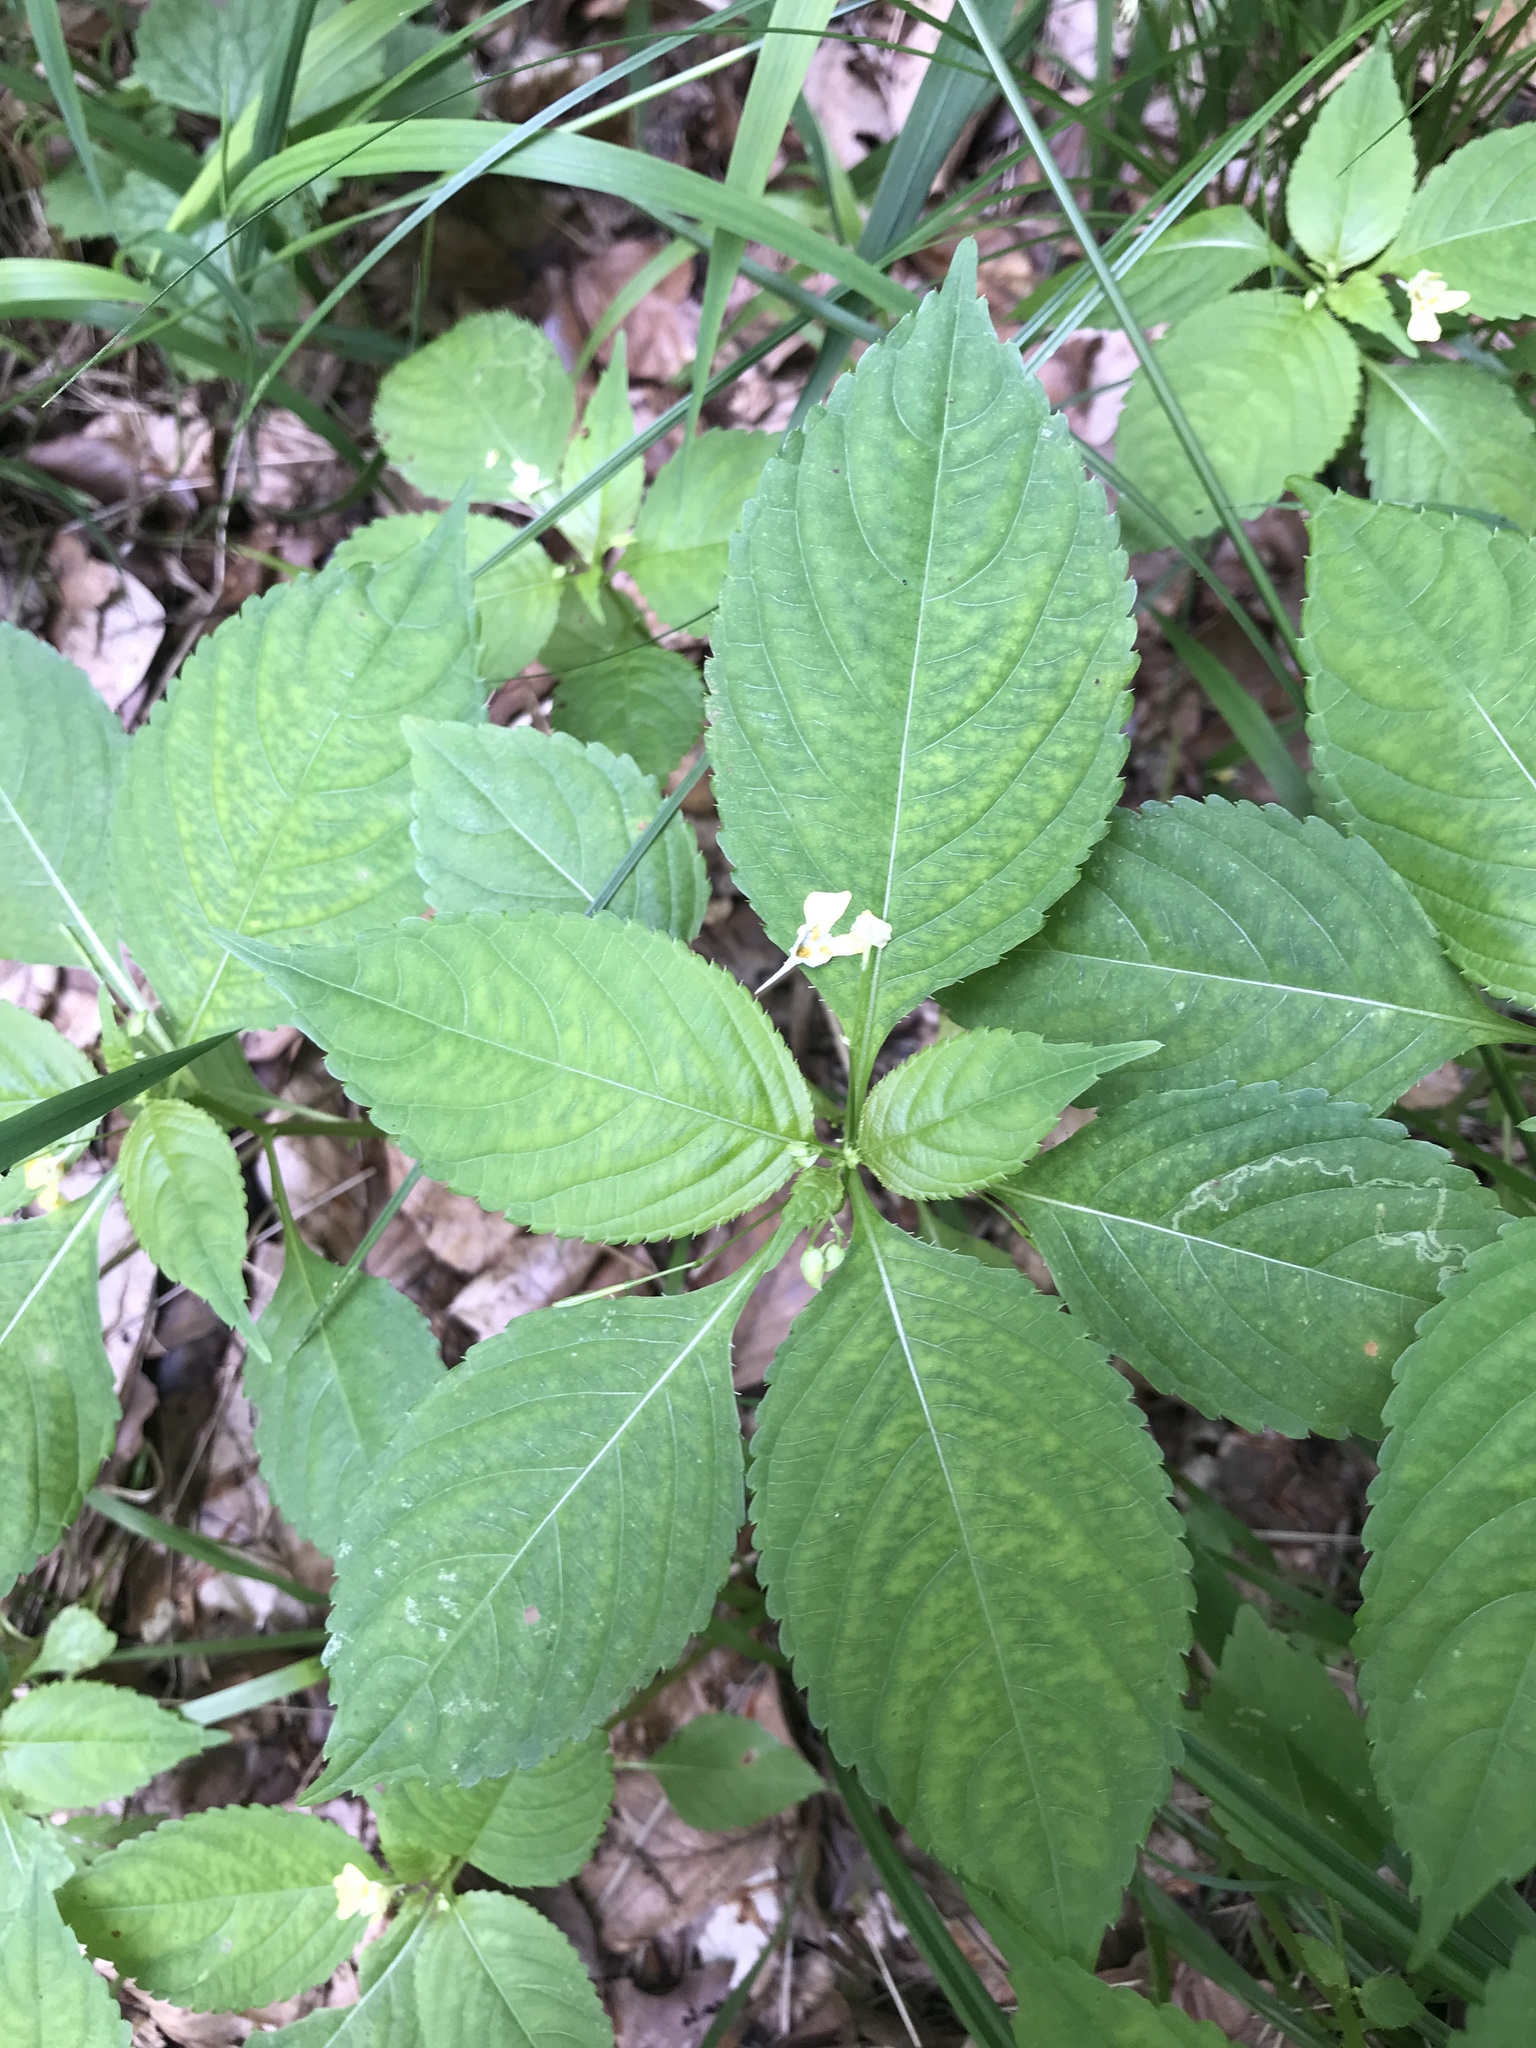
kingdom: Plantae
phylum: Tracheophyta
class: Magnoliopsida
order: Ericales
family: Balsaminaceae
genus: Impatiens
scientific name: Impatiens parviflora
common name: Small balsam
